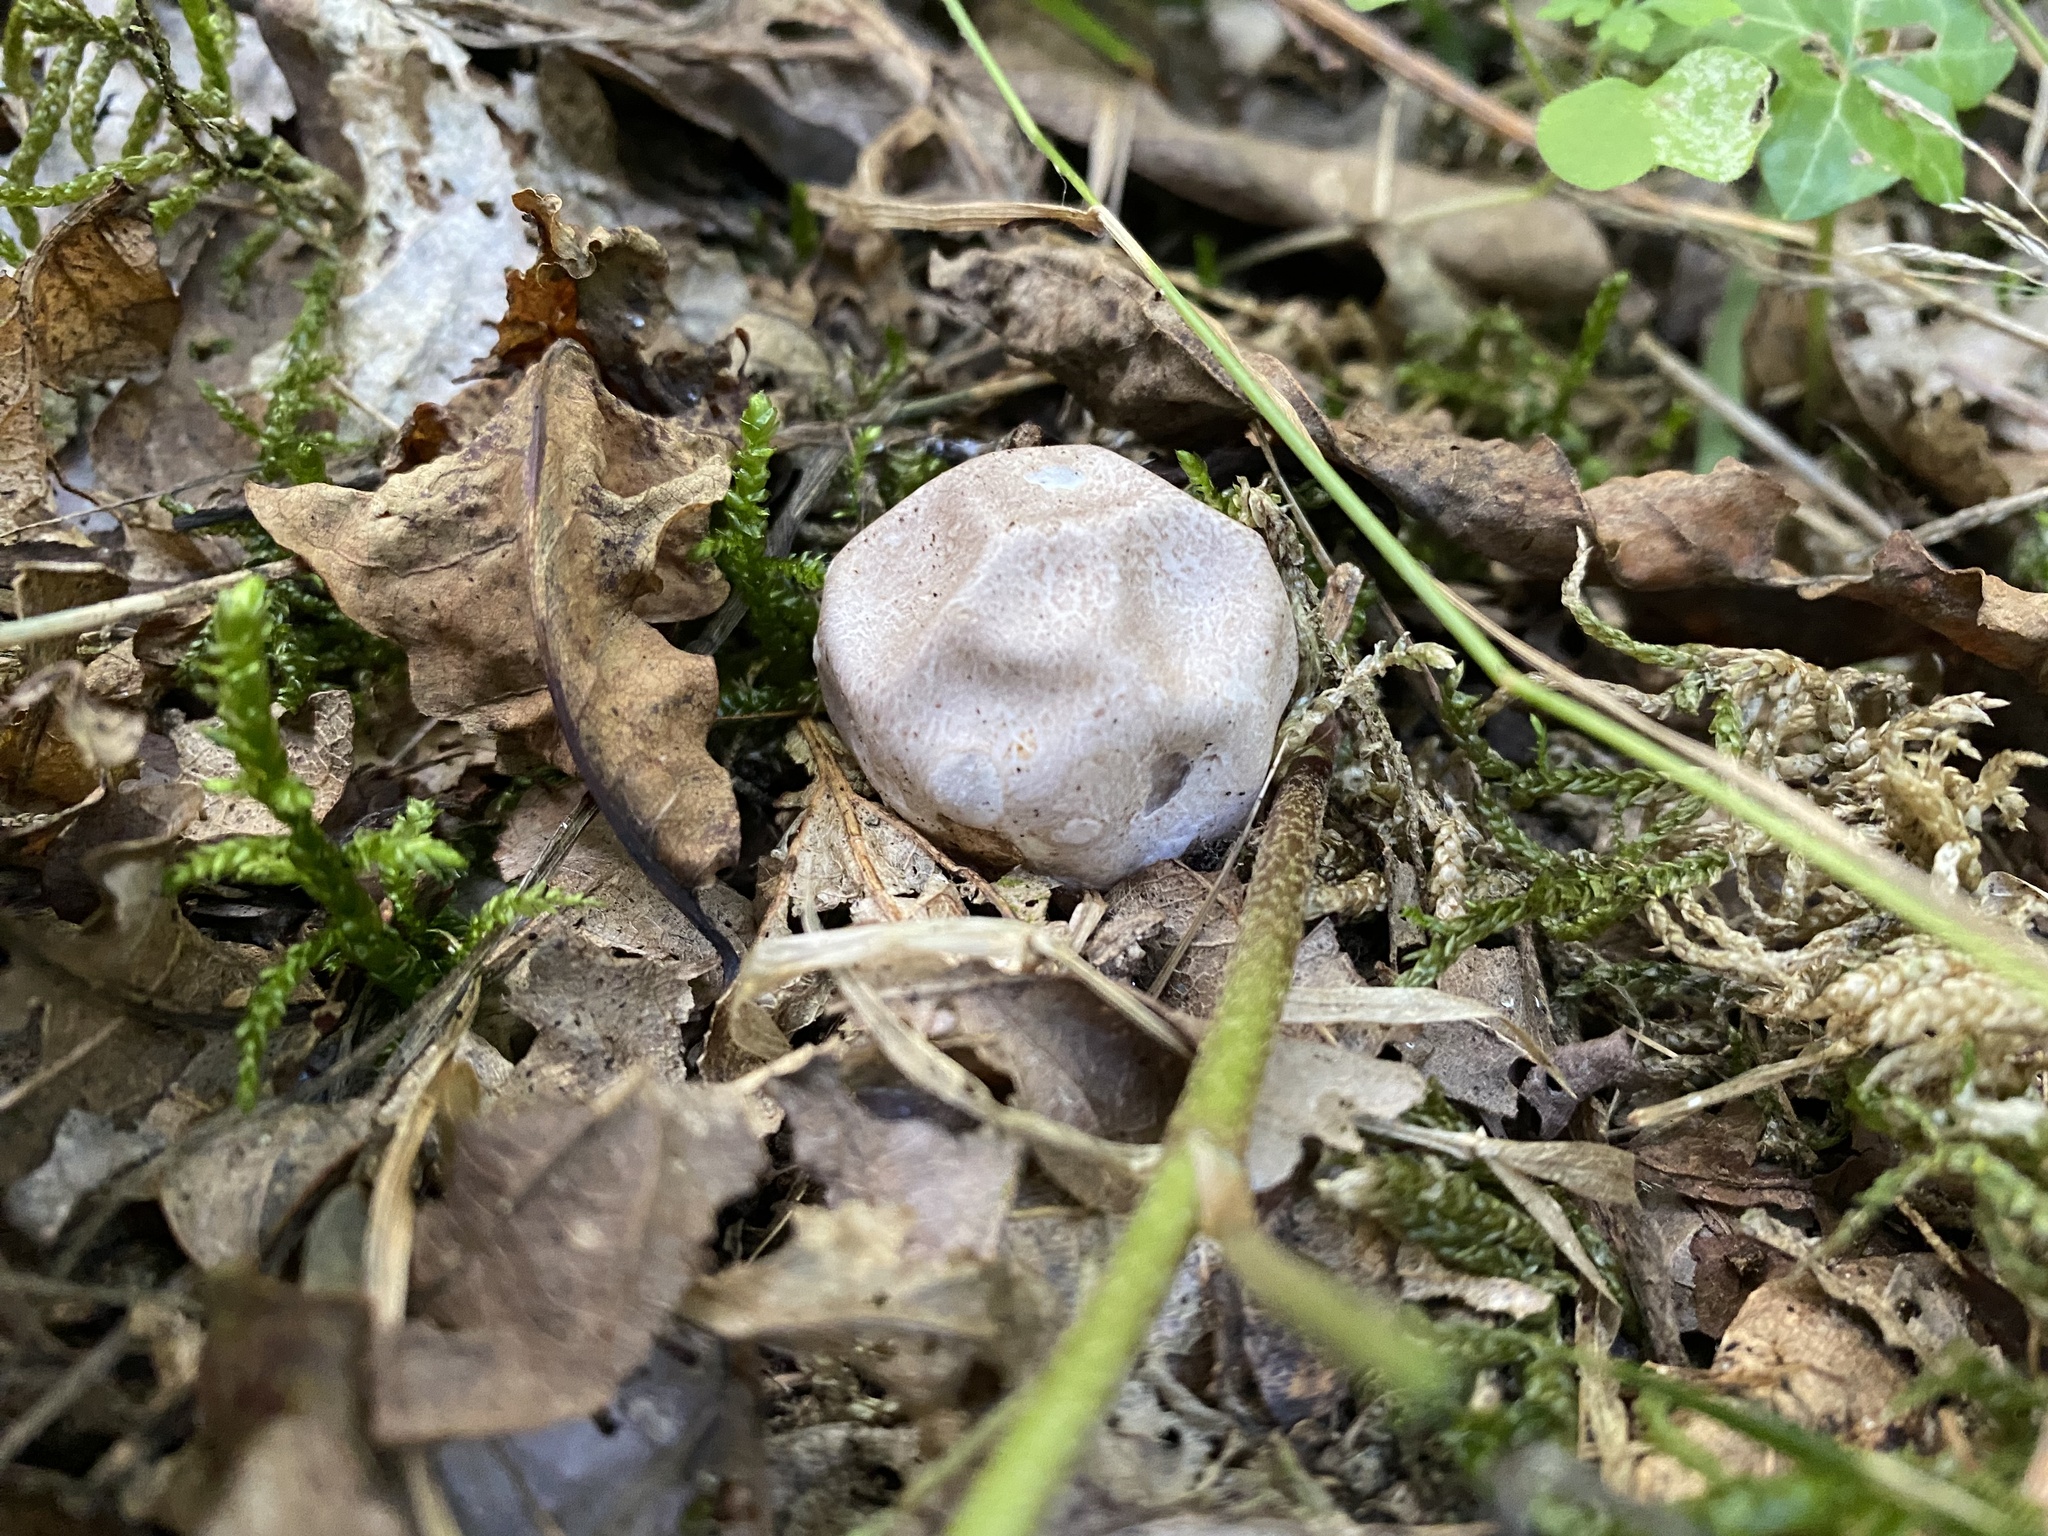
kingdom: Fungi
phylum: Basidiomycota
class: Agaricomycetes
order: Phallales
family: Phallaceae
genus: Clathrus
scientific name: Clathrus ruber
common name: Red cage
